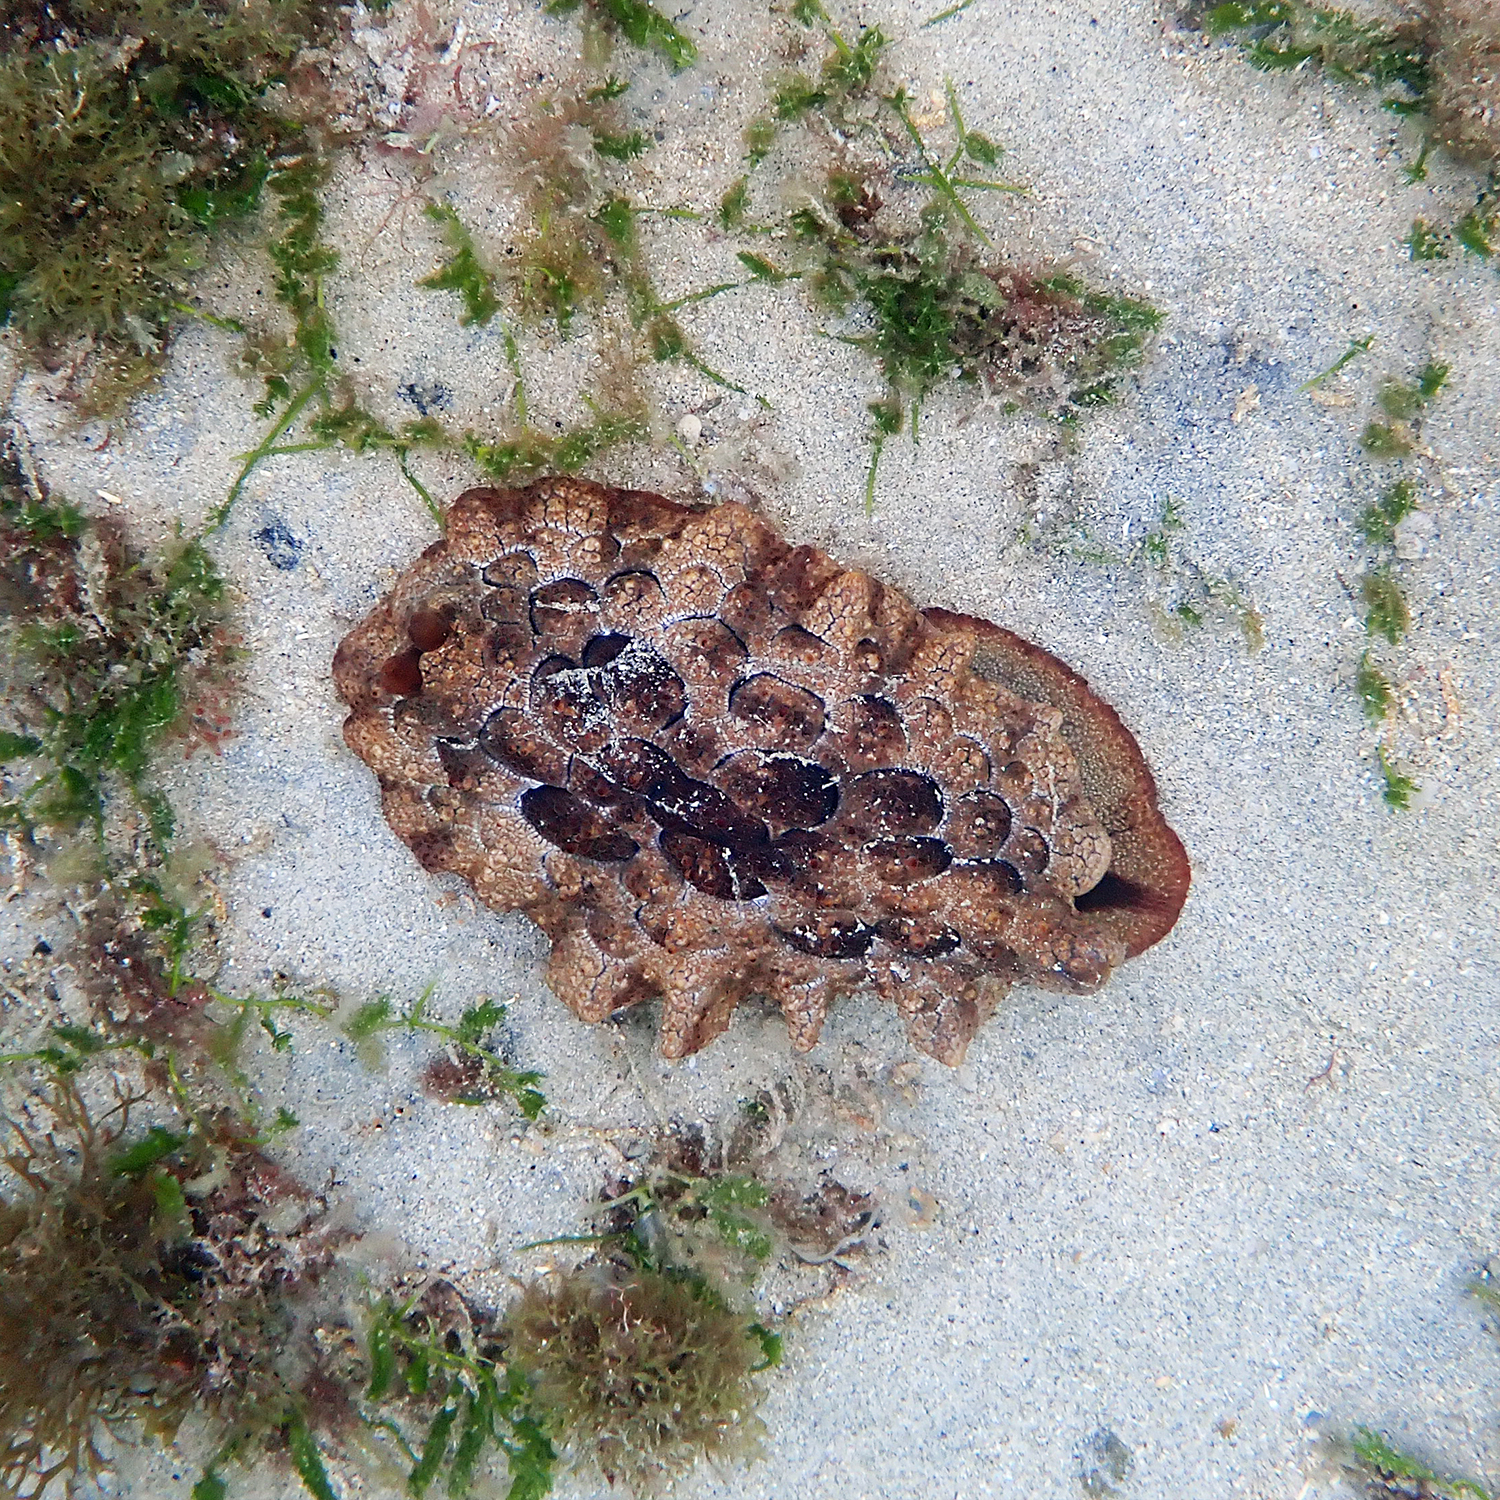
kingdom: Animalia
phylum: Mollusca
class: Gastropoda
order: Pleurobranchida
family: Pleurobranchidae
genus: Pleurobranchus
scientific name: Pleurobranchus forskalii
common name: Forskal's side-gilled sea slug
